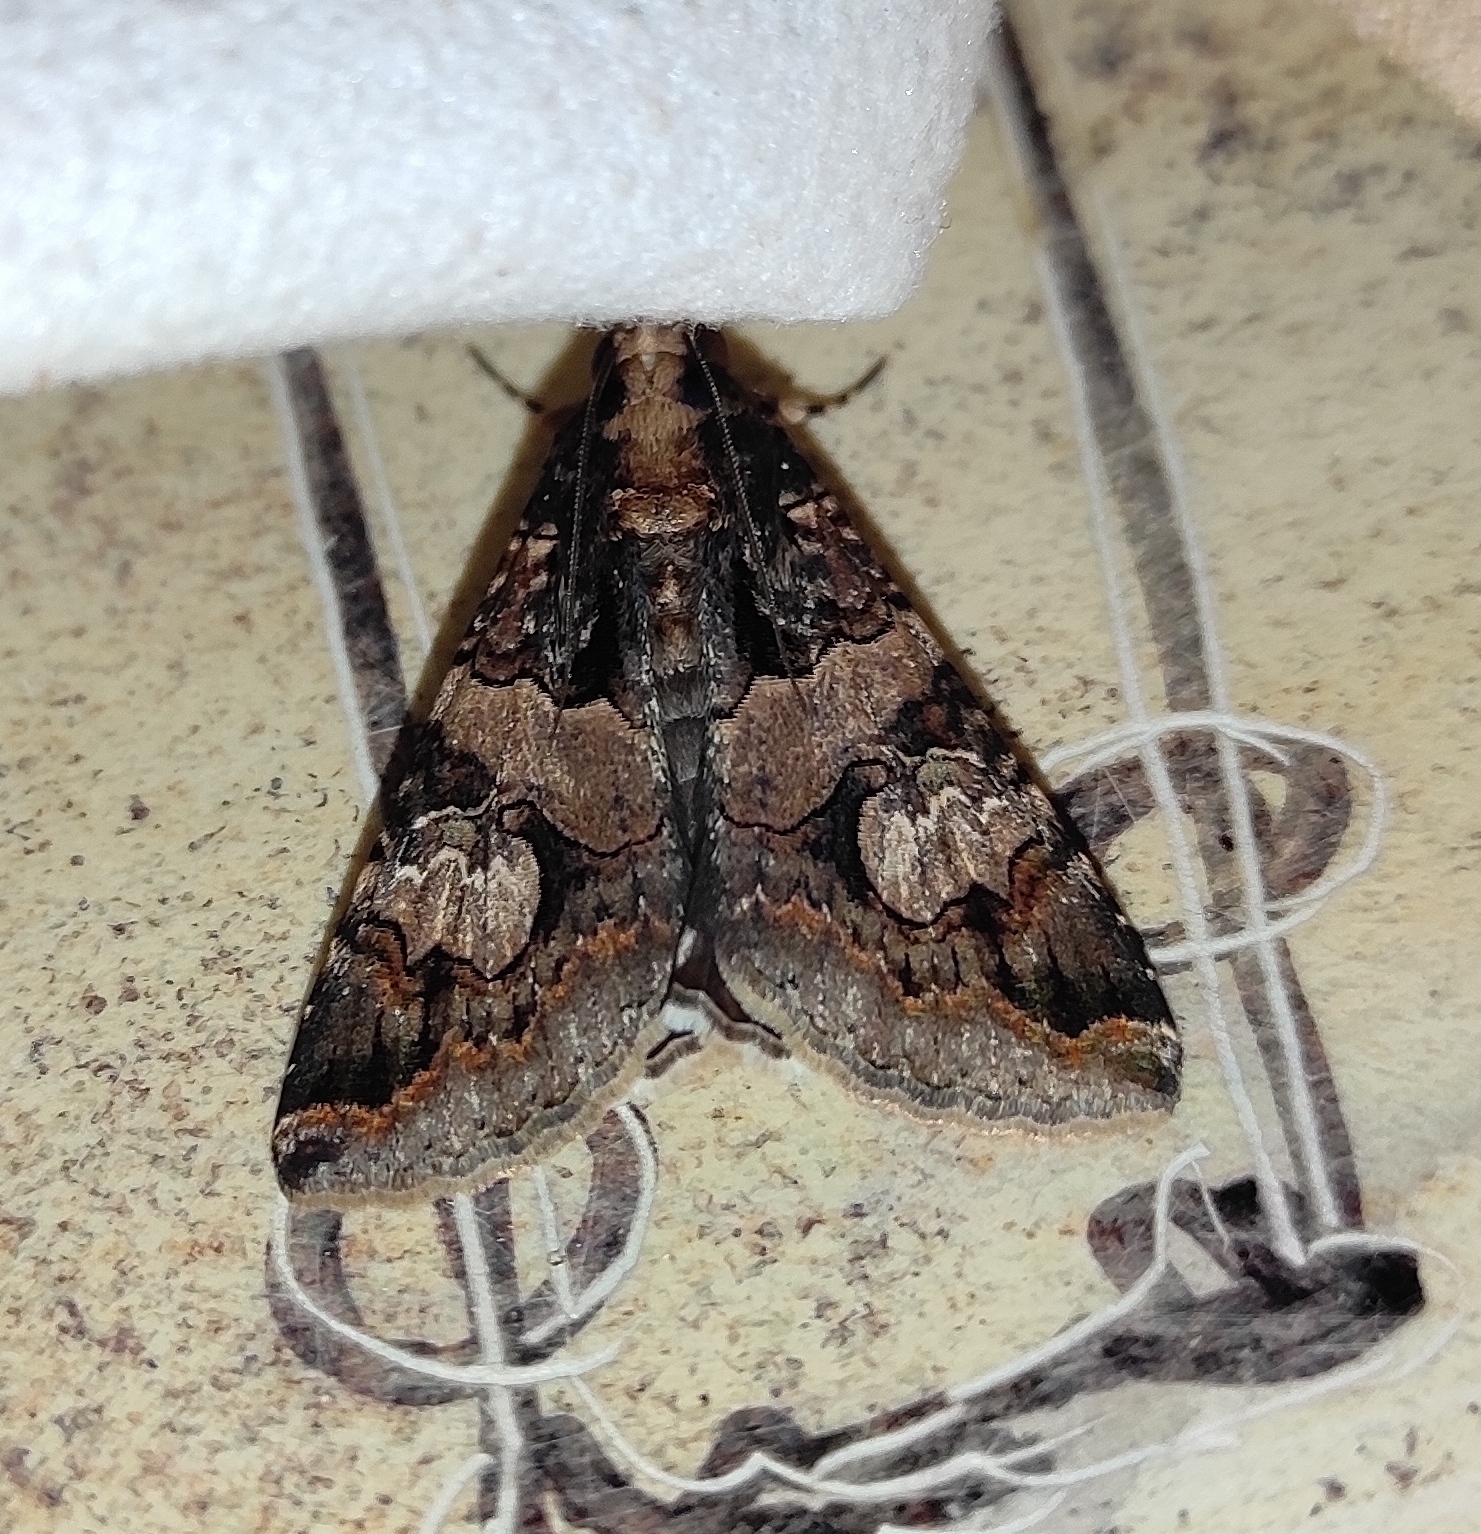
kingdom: Animalia
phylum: Arthropoda
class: Insecta
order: Lepidoptera
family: Erebidae
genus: Melipotis
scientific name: Melipotis famelica
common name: Famelica melipotis moth
